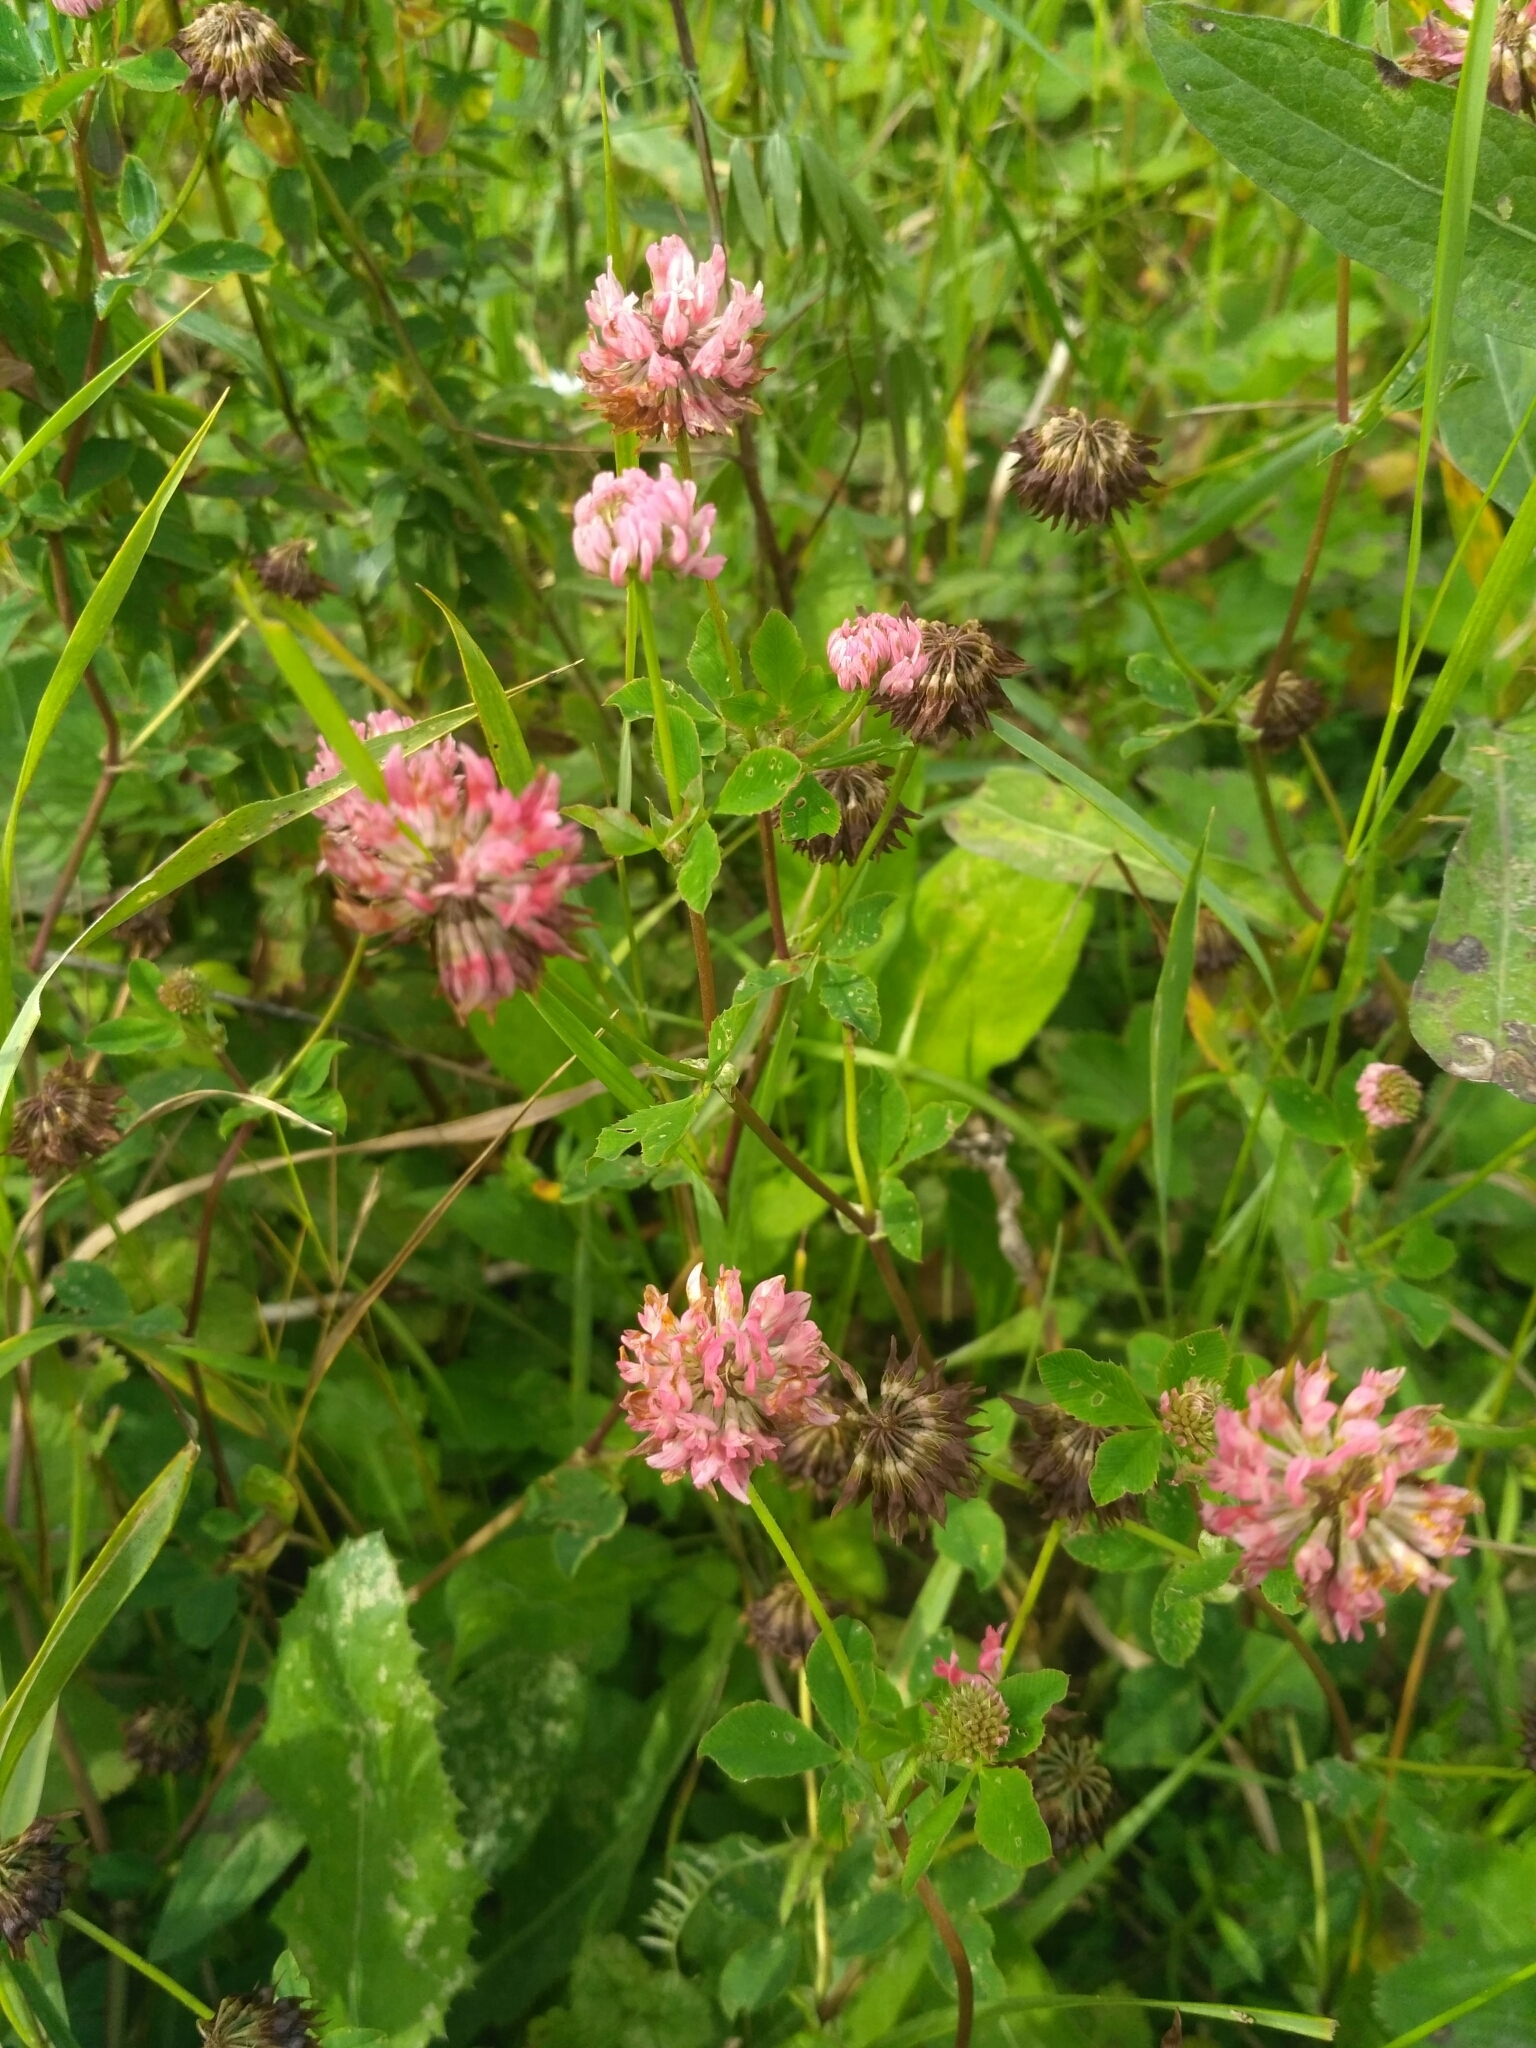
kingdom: Plantae
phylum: Tracheophyta
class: Magnoliopsida
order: Fabales
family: Fabaceae
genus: Trifolium
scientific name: Trifolium hybridum
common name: Alsike clover
